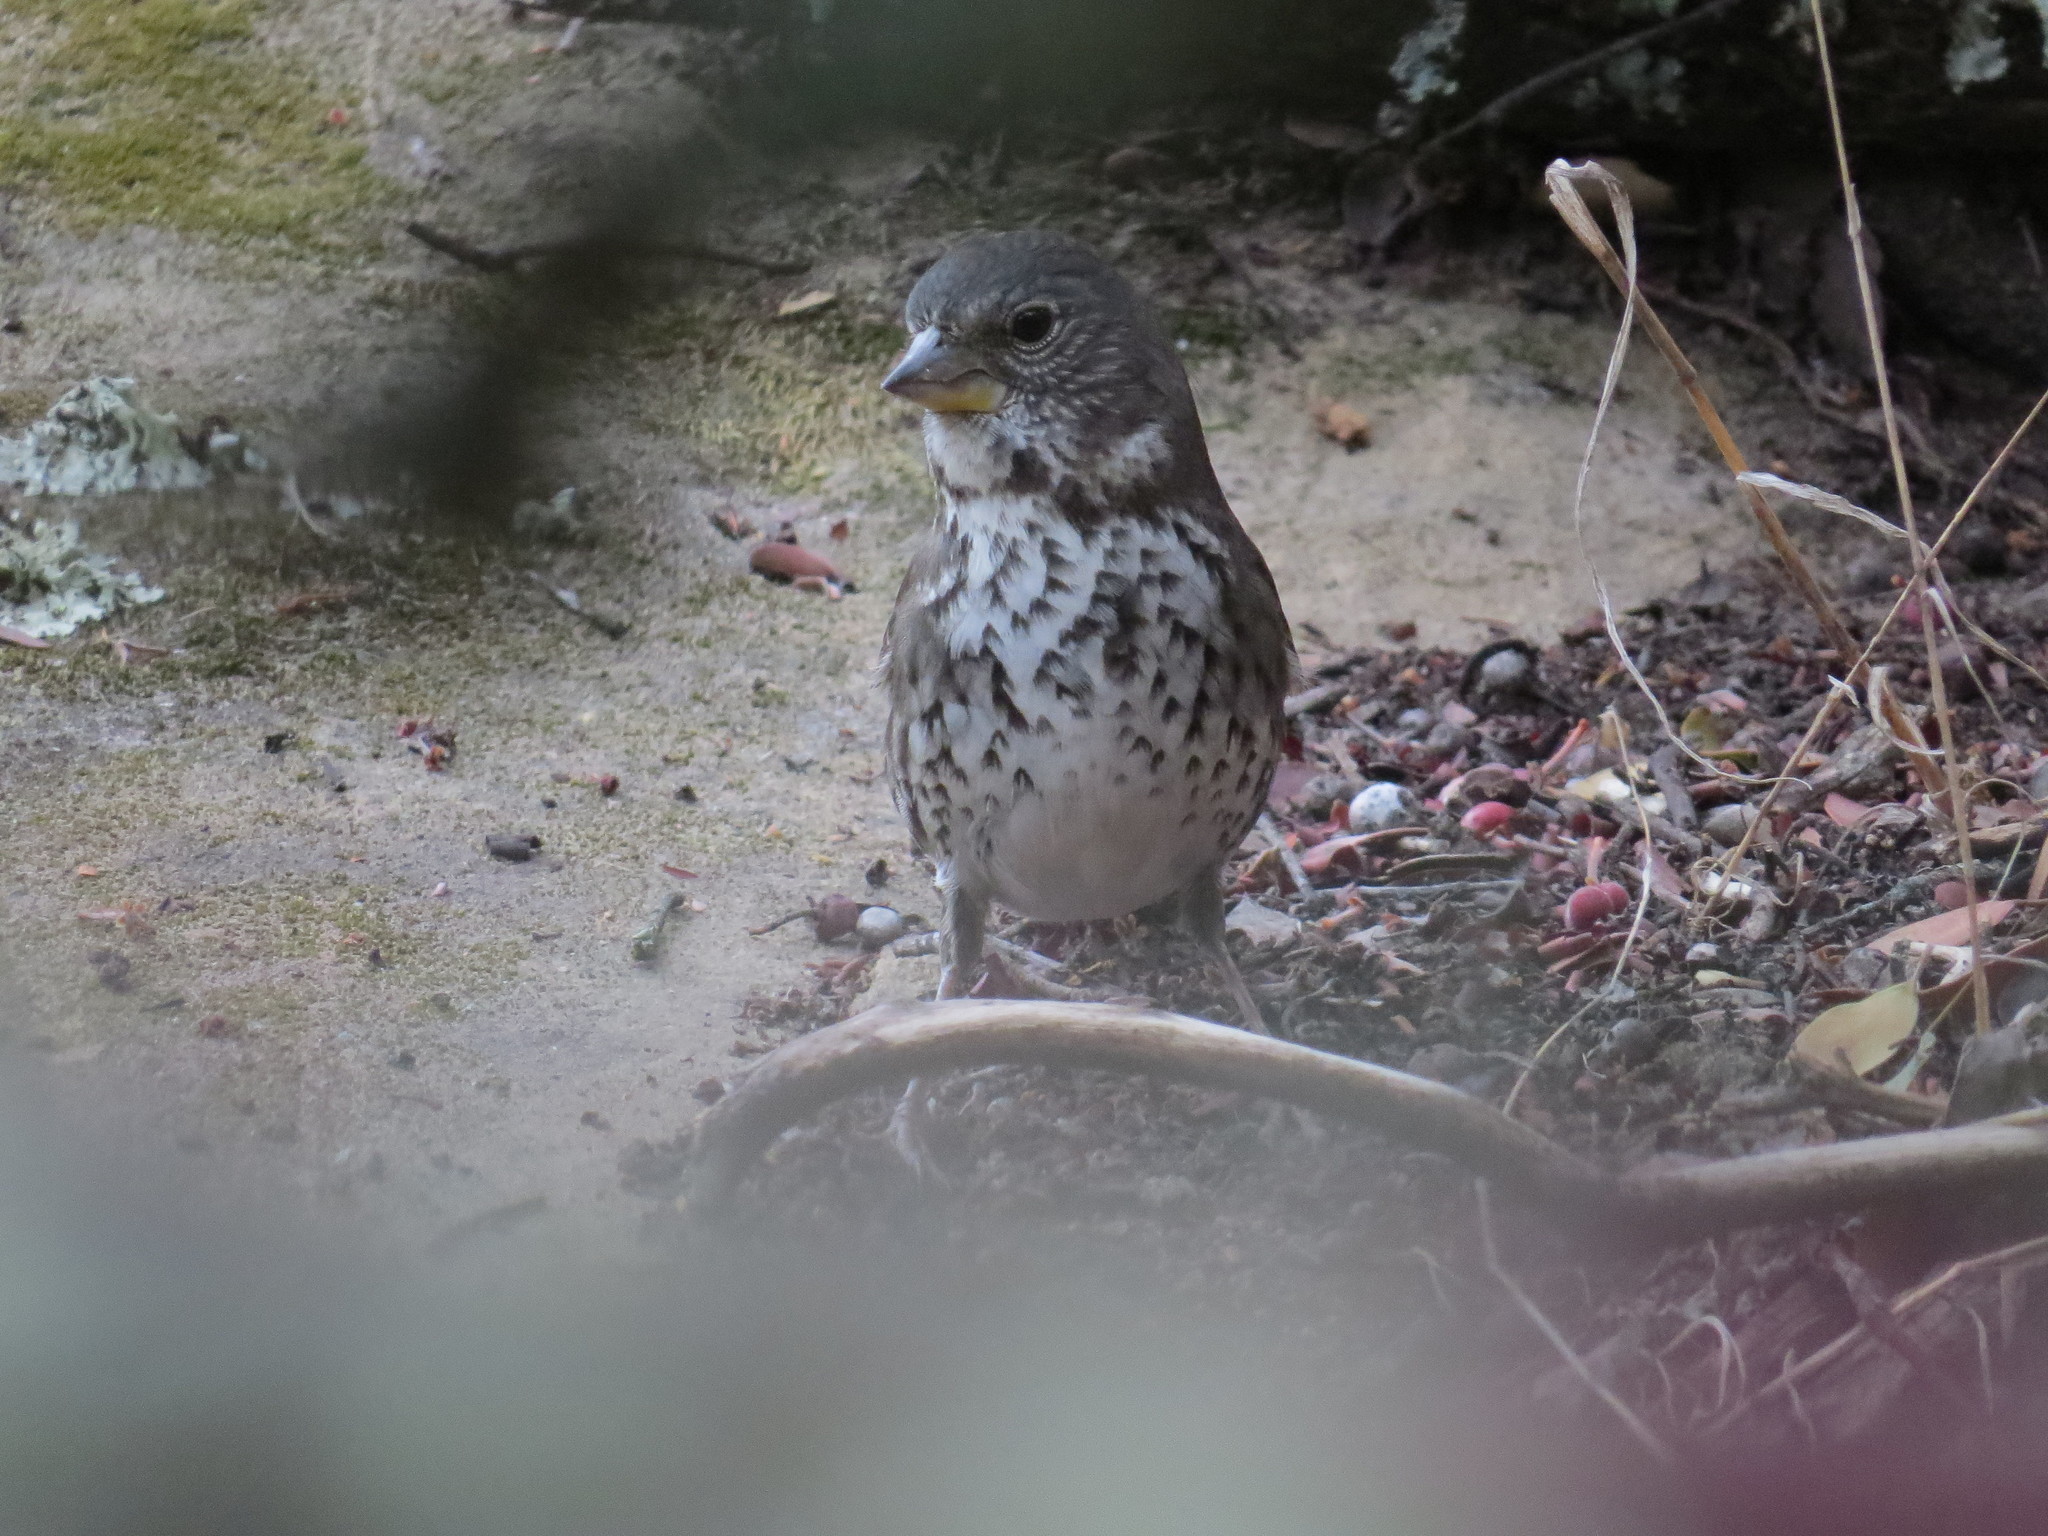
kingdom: Animalia
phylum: Chordata
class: Aves
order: Passeriformes
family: Passerellidae
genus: Passerella
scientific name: Passerella iliaca
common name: Fox sparrow
